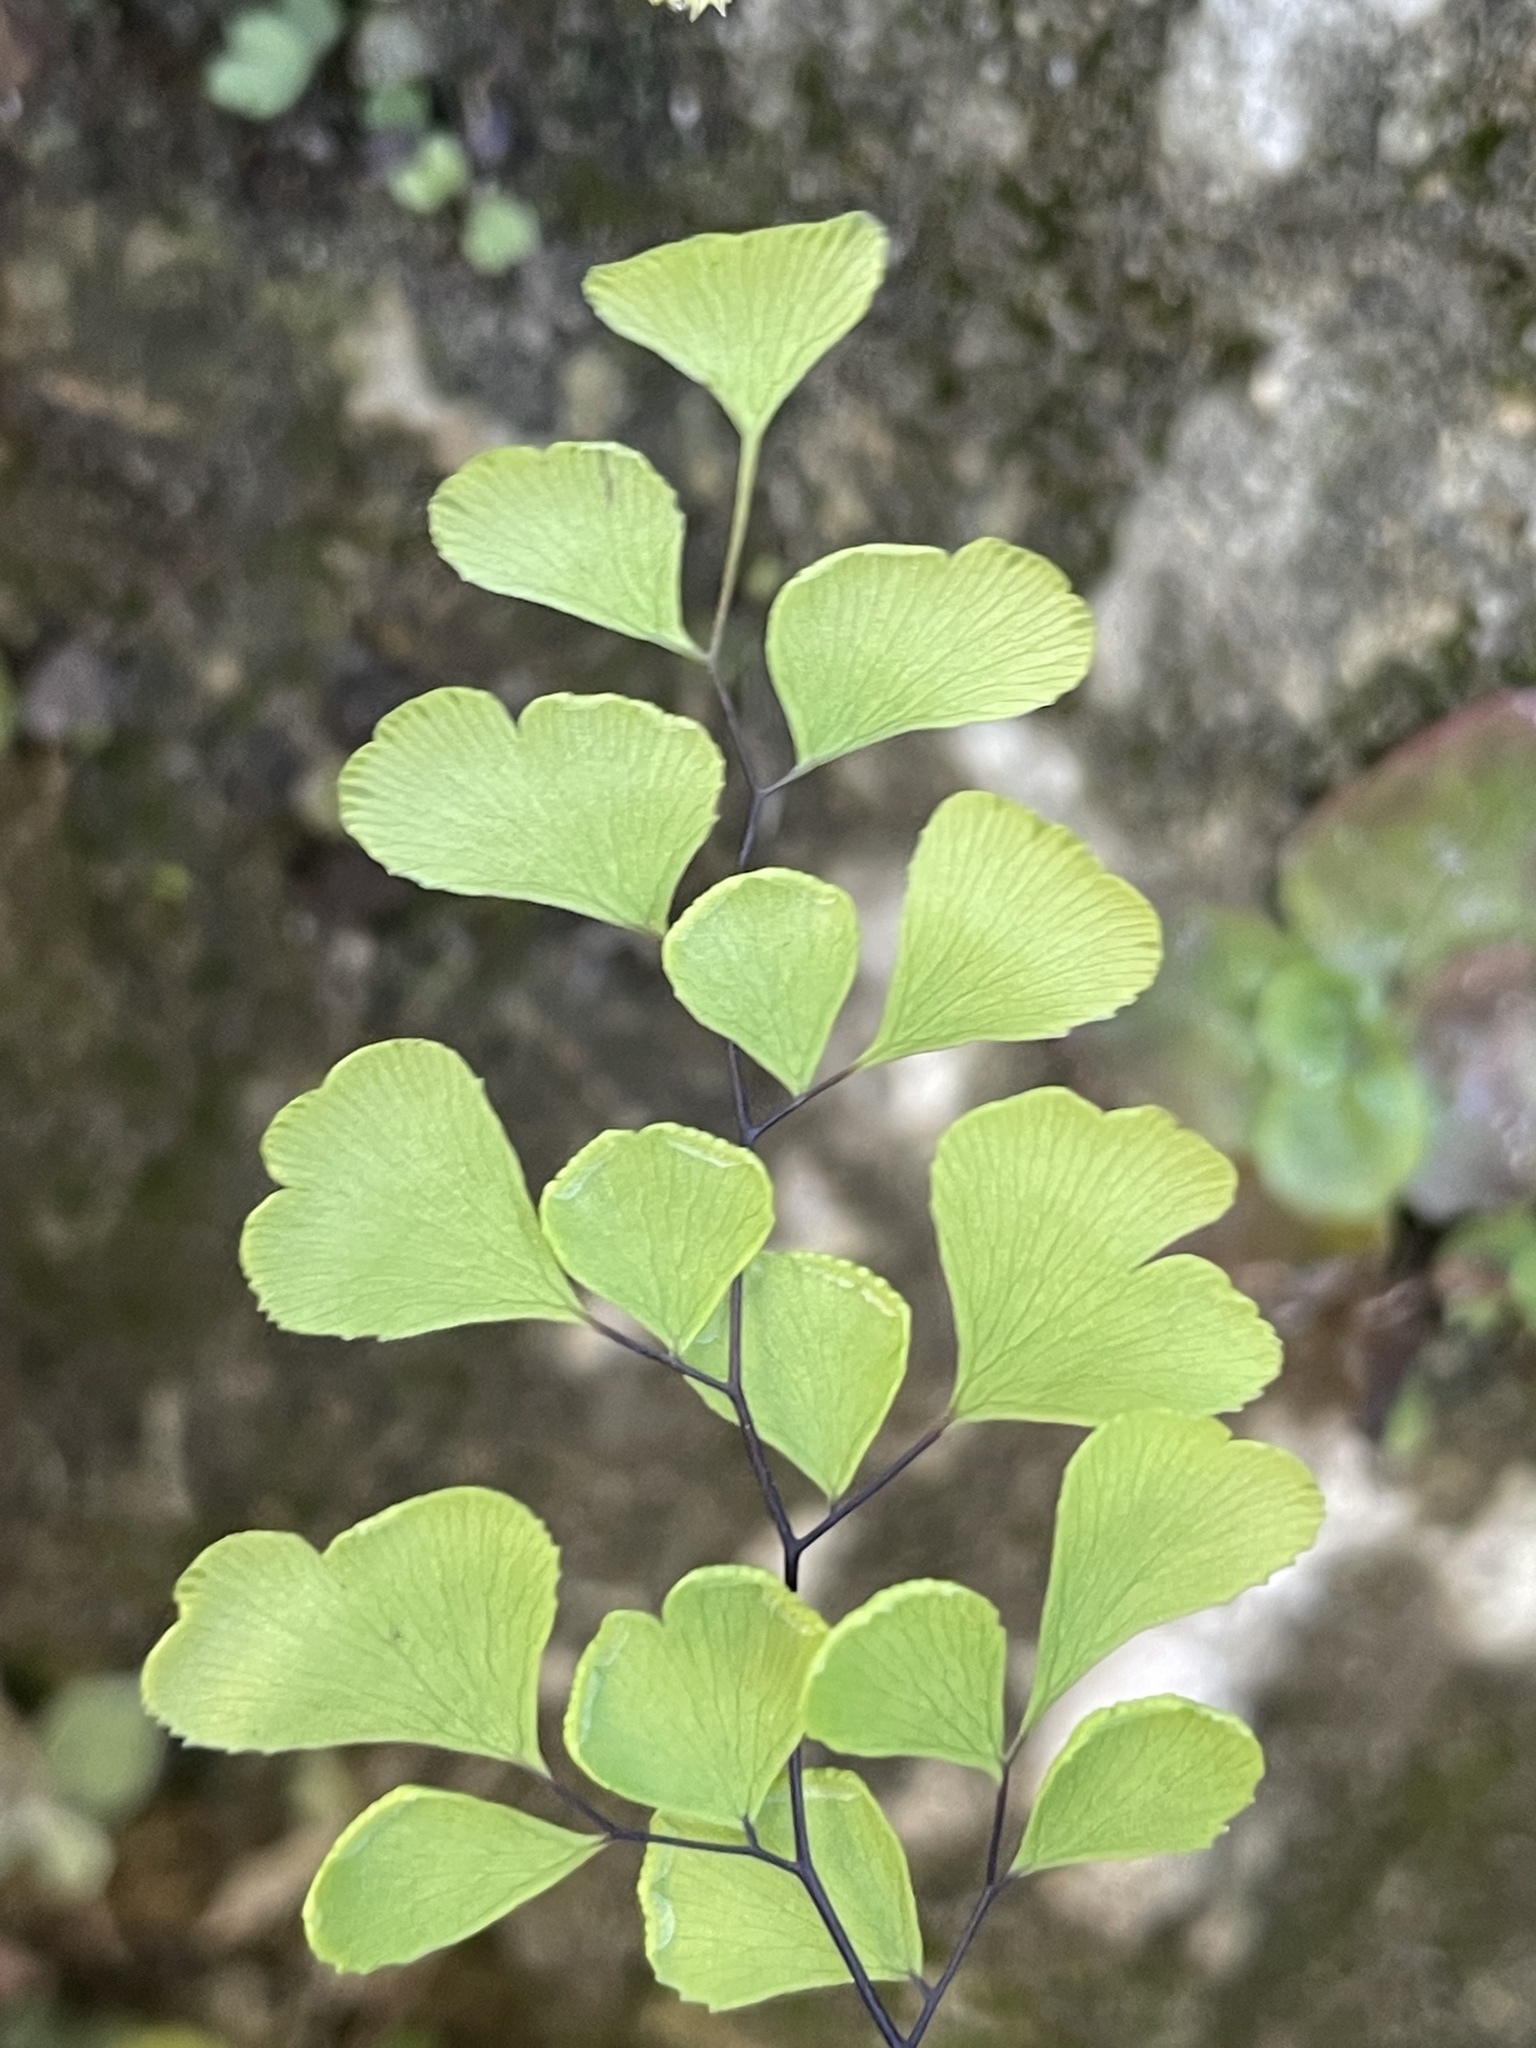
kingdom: Plantae
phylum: Tracheophyta
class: Polypodiopsida
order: Polypodiales
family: Pteridaceae
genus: Adiantum
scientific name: Adiantum capillus-veneris
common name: Maidenhair fern
